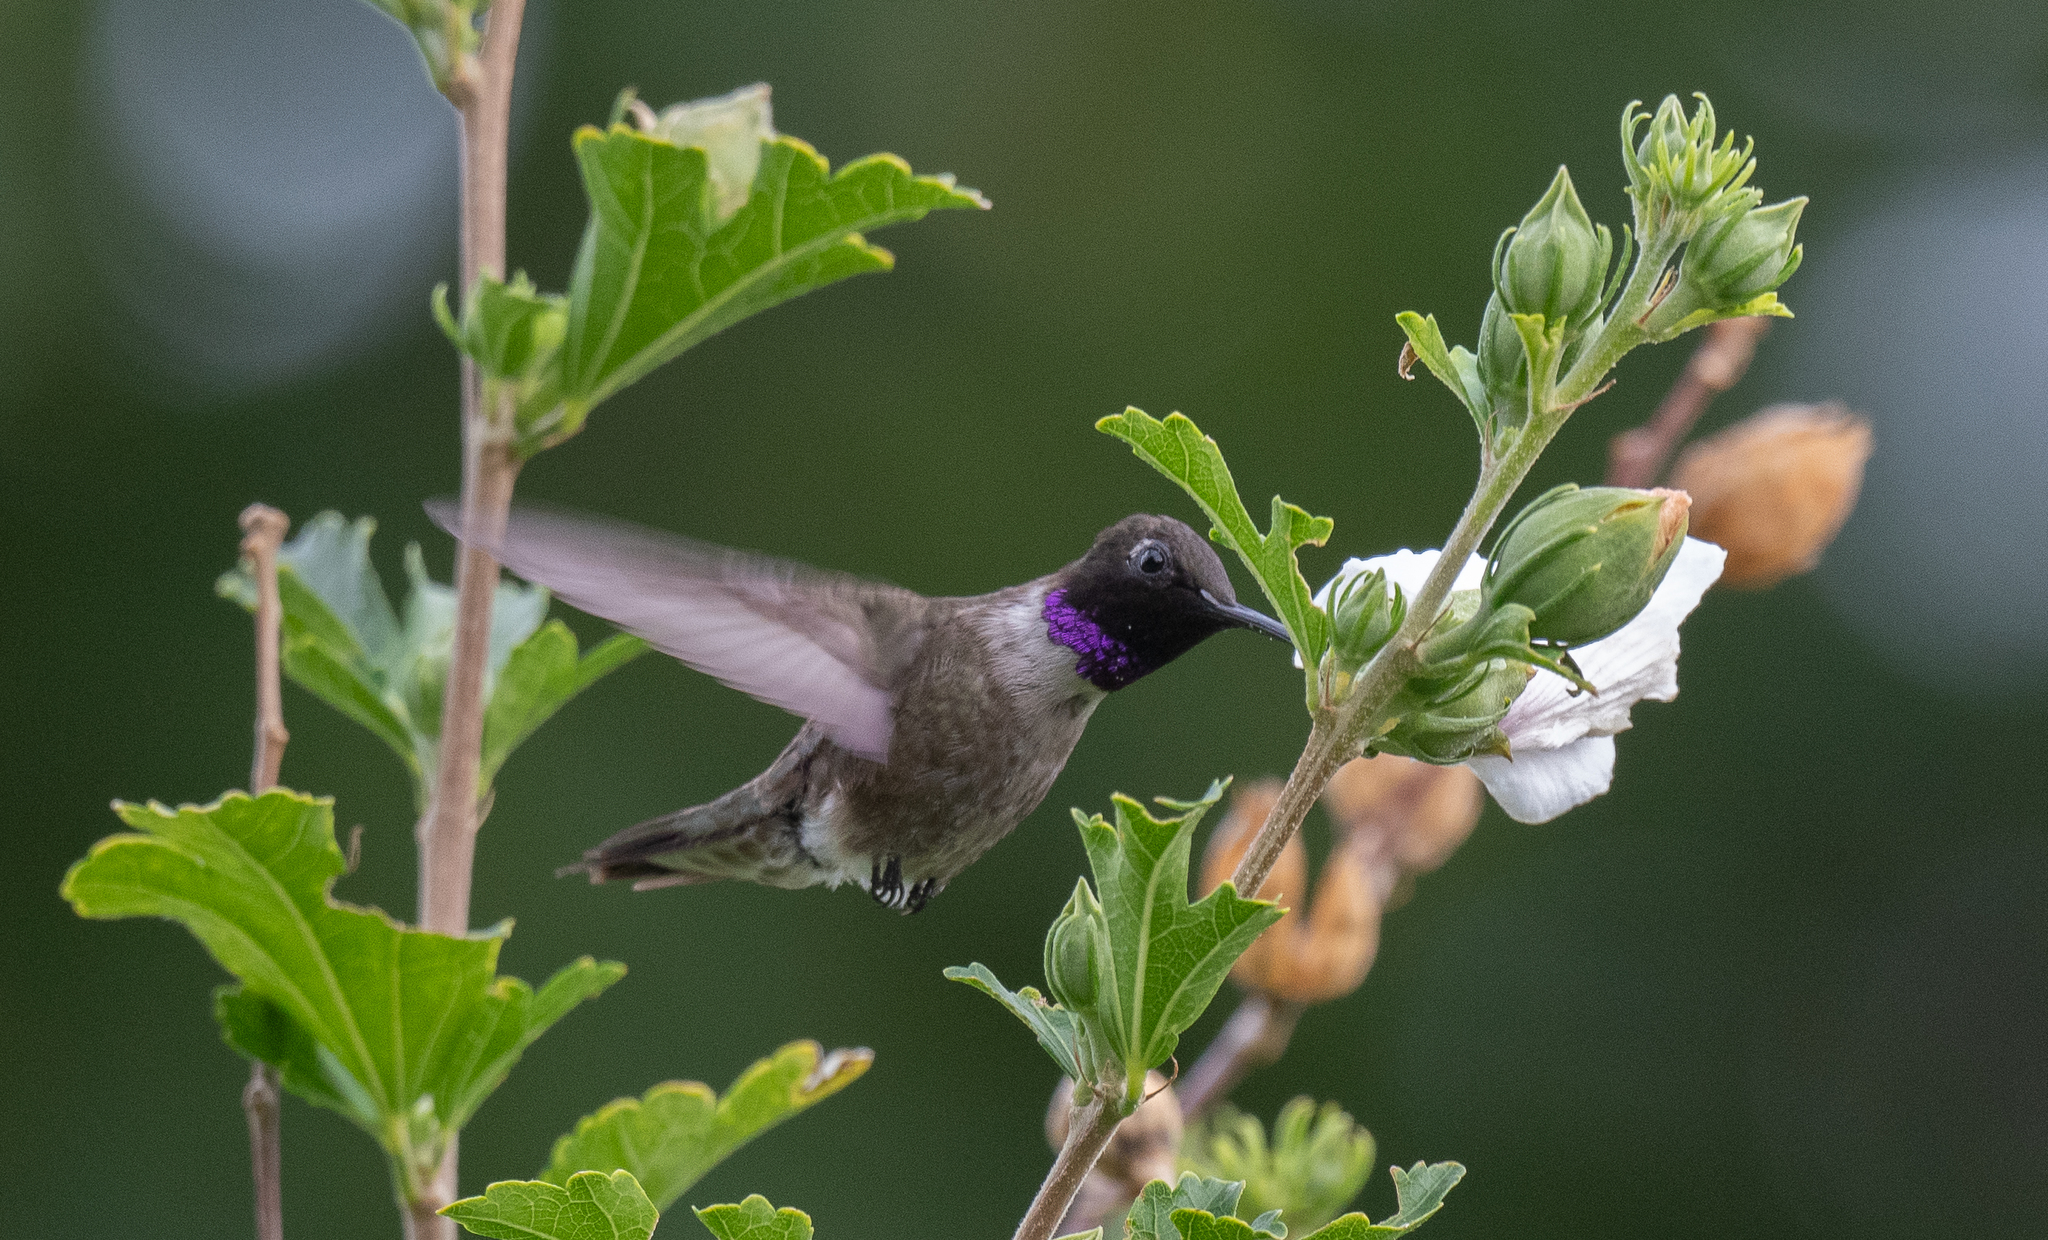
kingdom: Animalia
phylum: Chordata
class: Aves
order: Apodiformes
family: Trochilidae
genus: Archilochus
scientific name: Archilochus alexandri
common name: Black-chinned hummingbird
